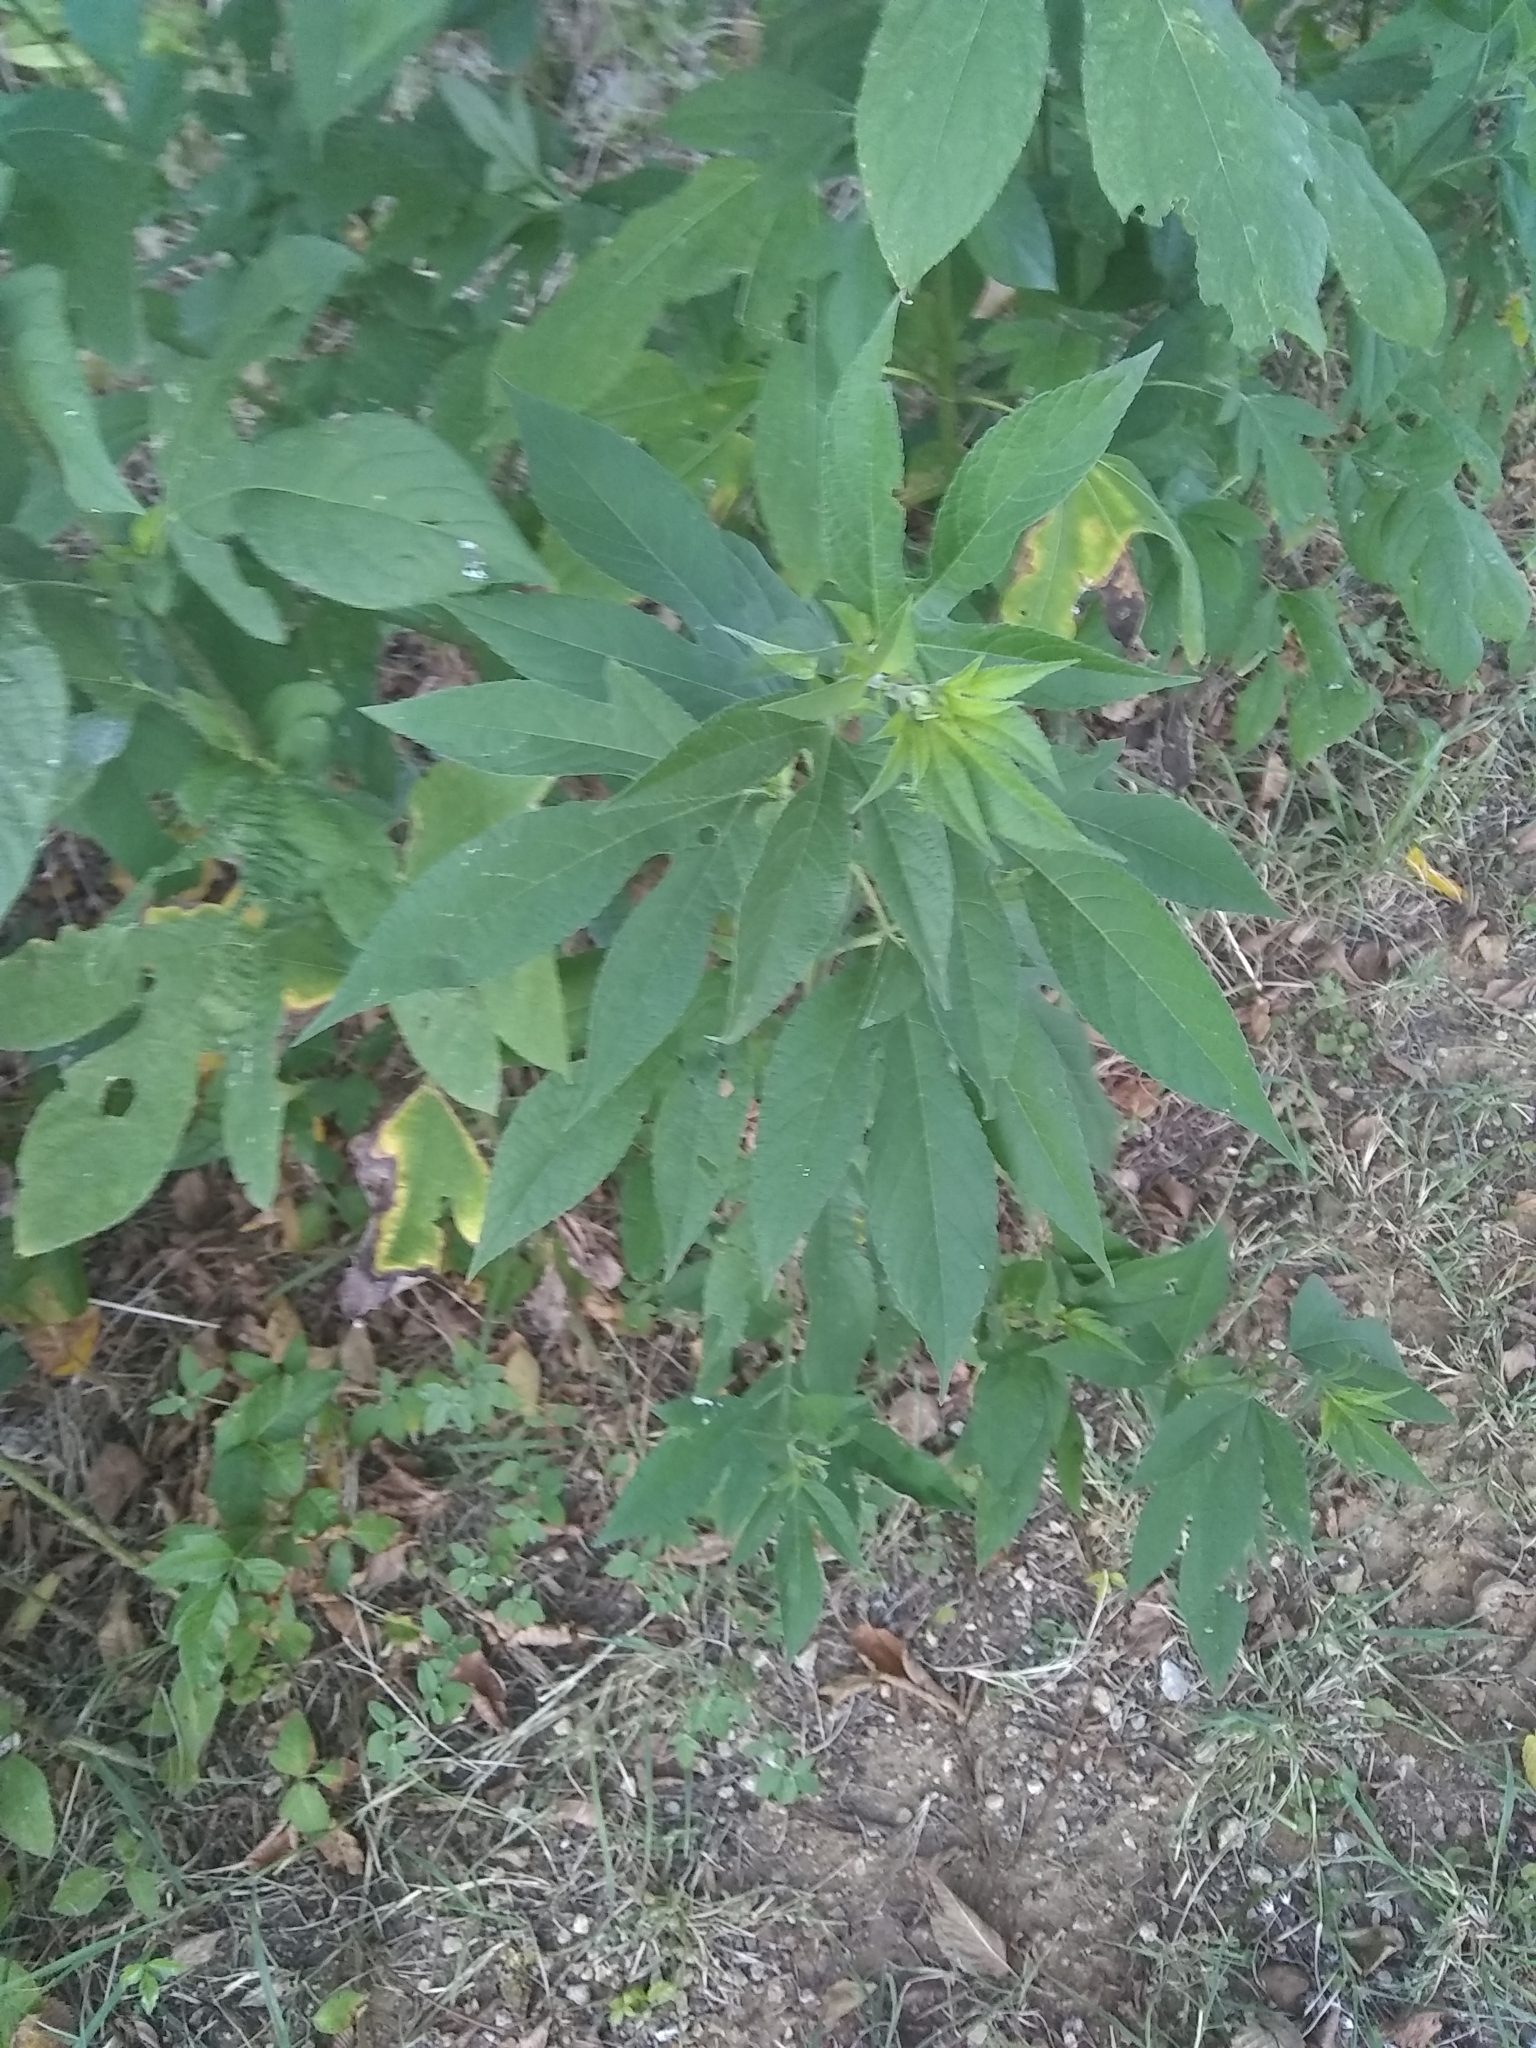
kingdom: Plantae
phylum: Tracheophyta
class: Magnoliopsida
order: Asterales
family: Asteraceae
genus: Ambrosia
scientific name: Ambrosia trifida
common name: Giant ragweed
